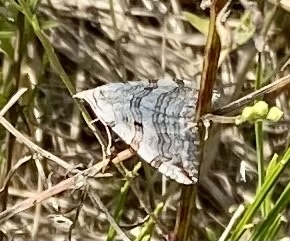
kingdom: Animalia
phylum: Arthropoda
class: Insecta
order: Lepidoptera
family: Geometridae
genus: Aplocera
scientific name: Aplocera plagiata
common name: Treble-bar
